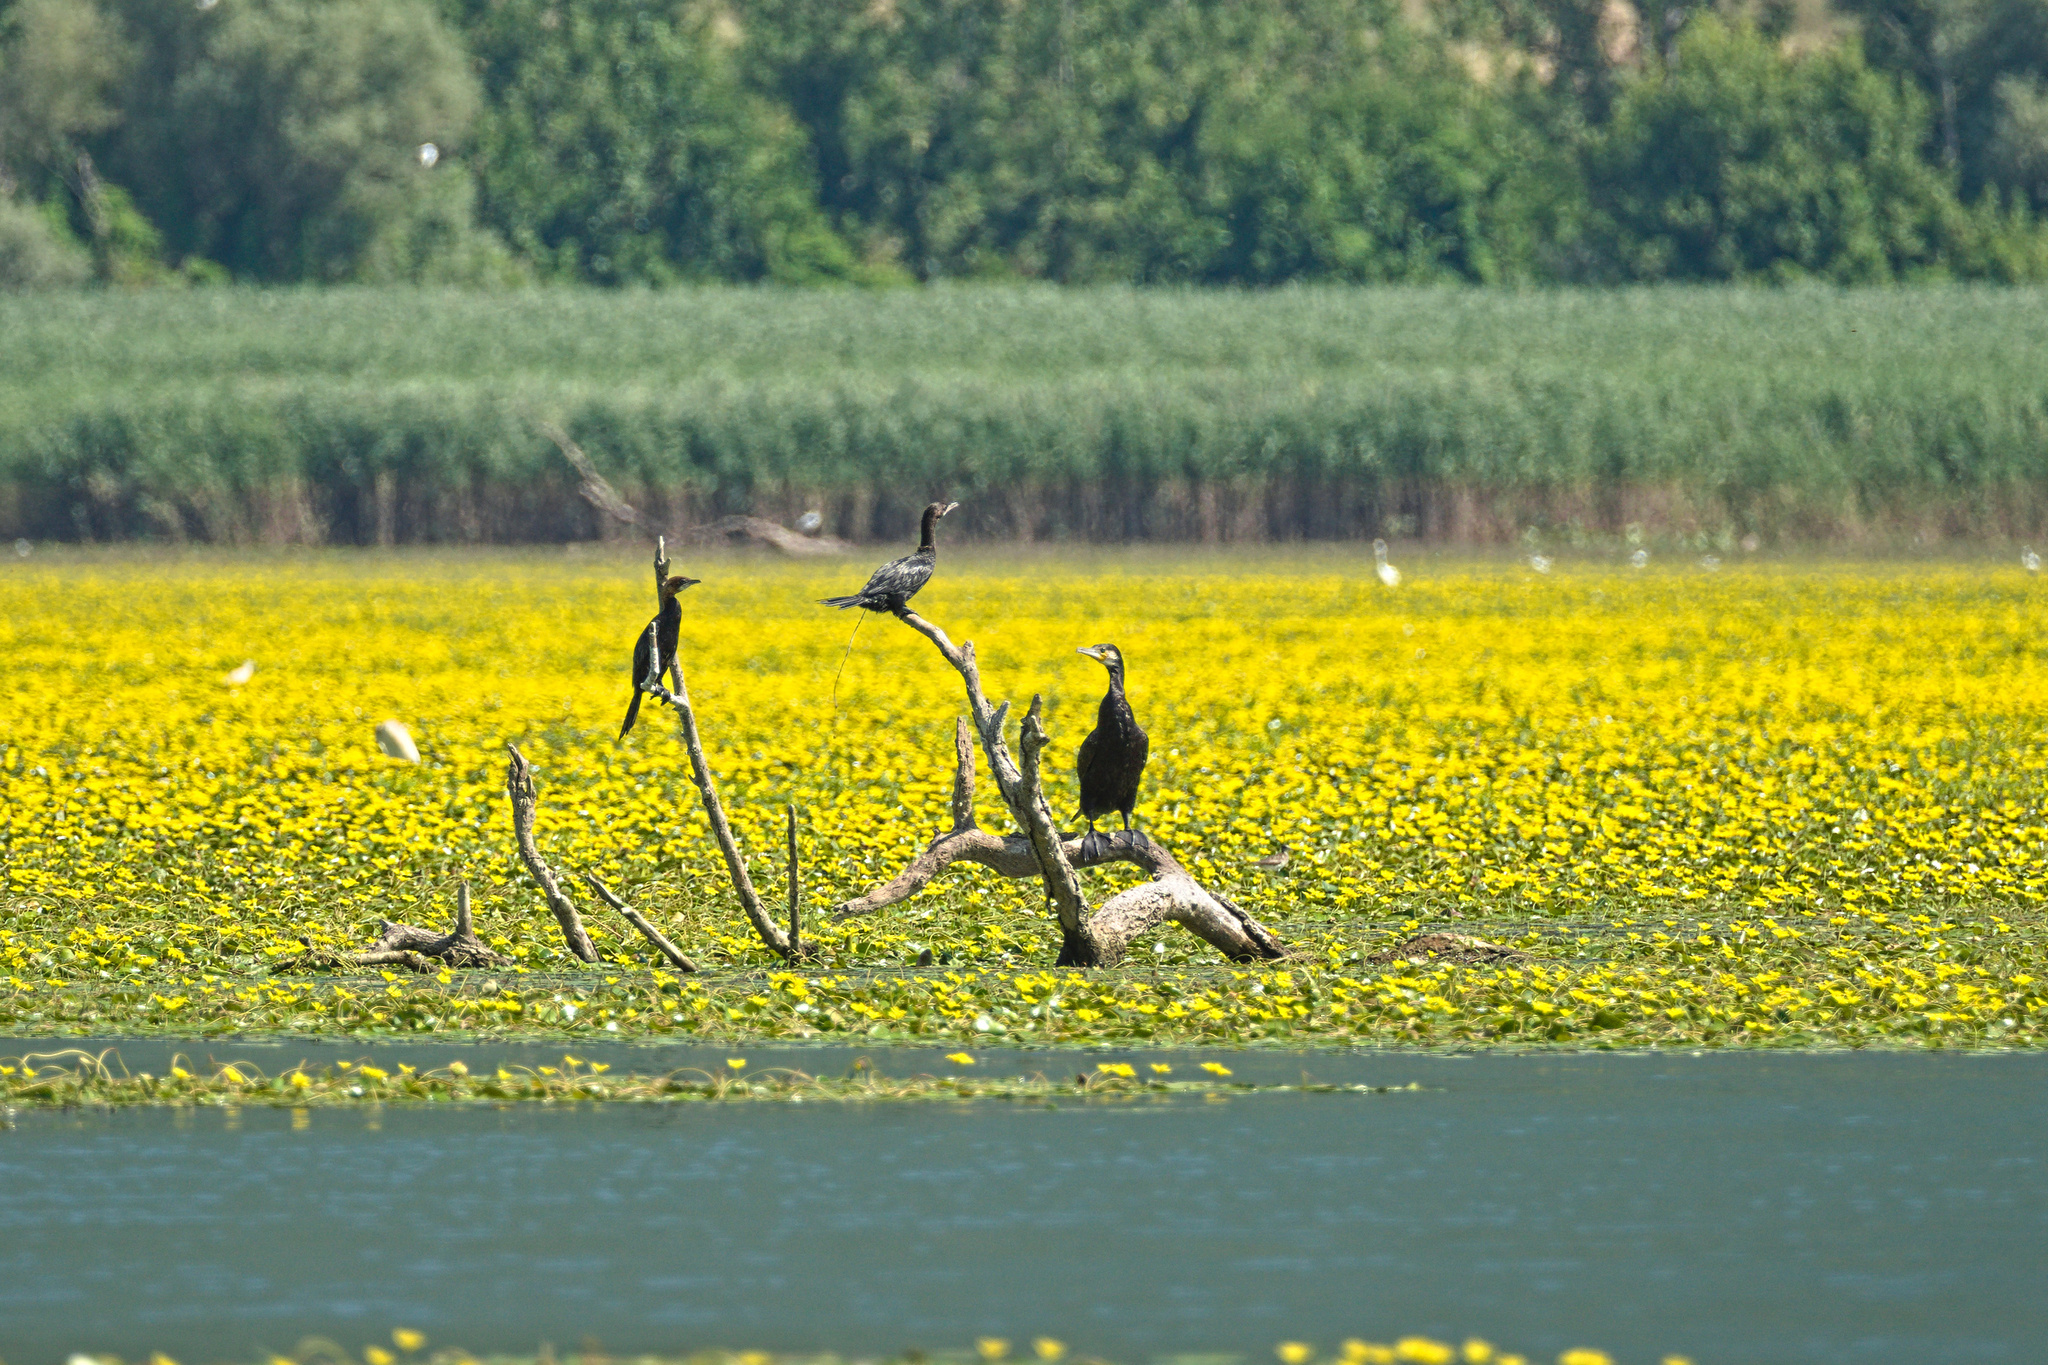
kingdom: Animalia
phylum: Chordata
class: Aves
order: Suliformes
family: Phalacrocoracidae
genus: Phalacrocorax
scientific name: Phalacrocorax carbo
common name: Great cormorant
